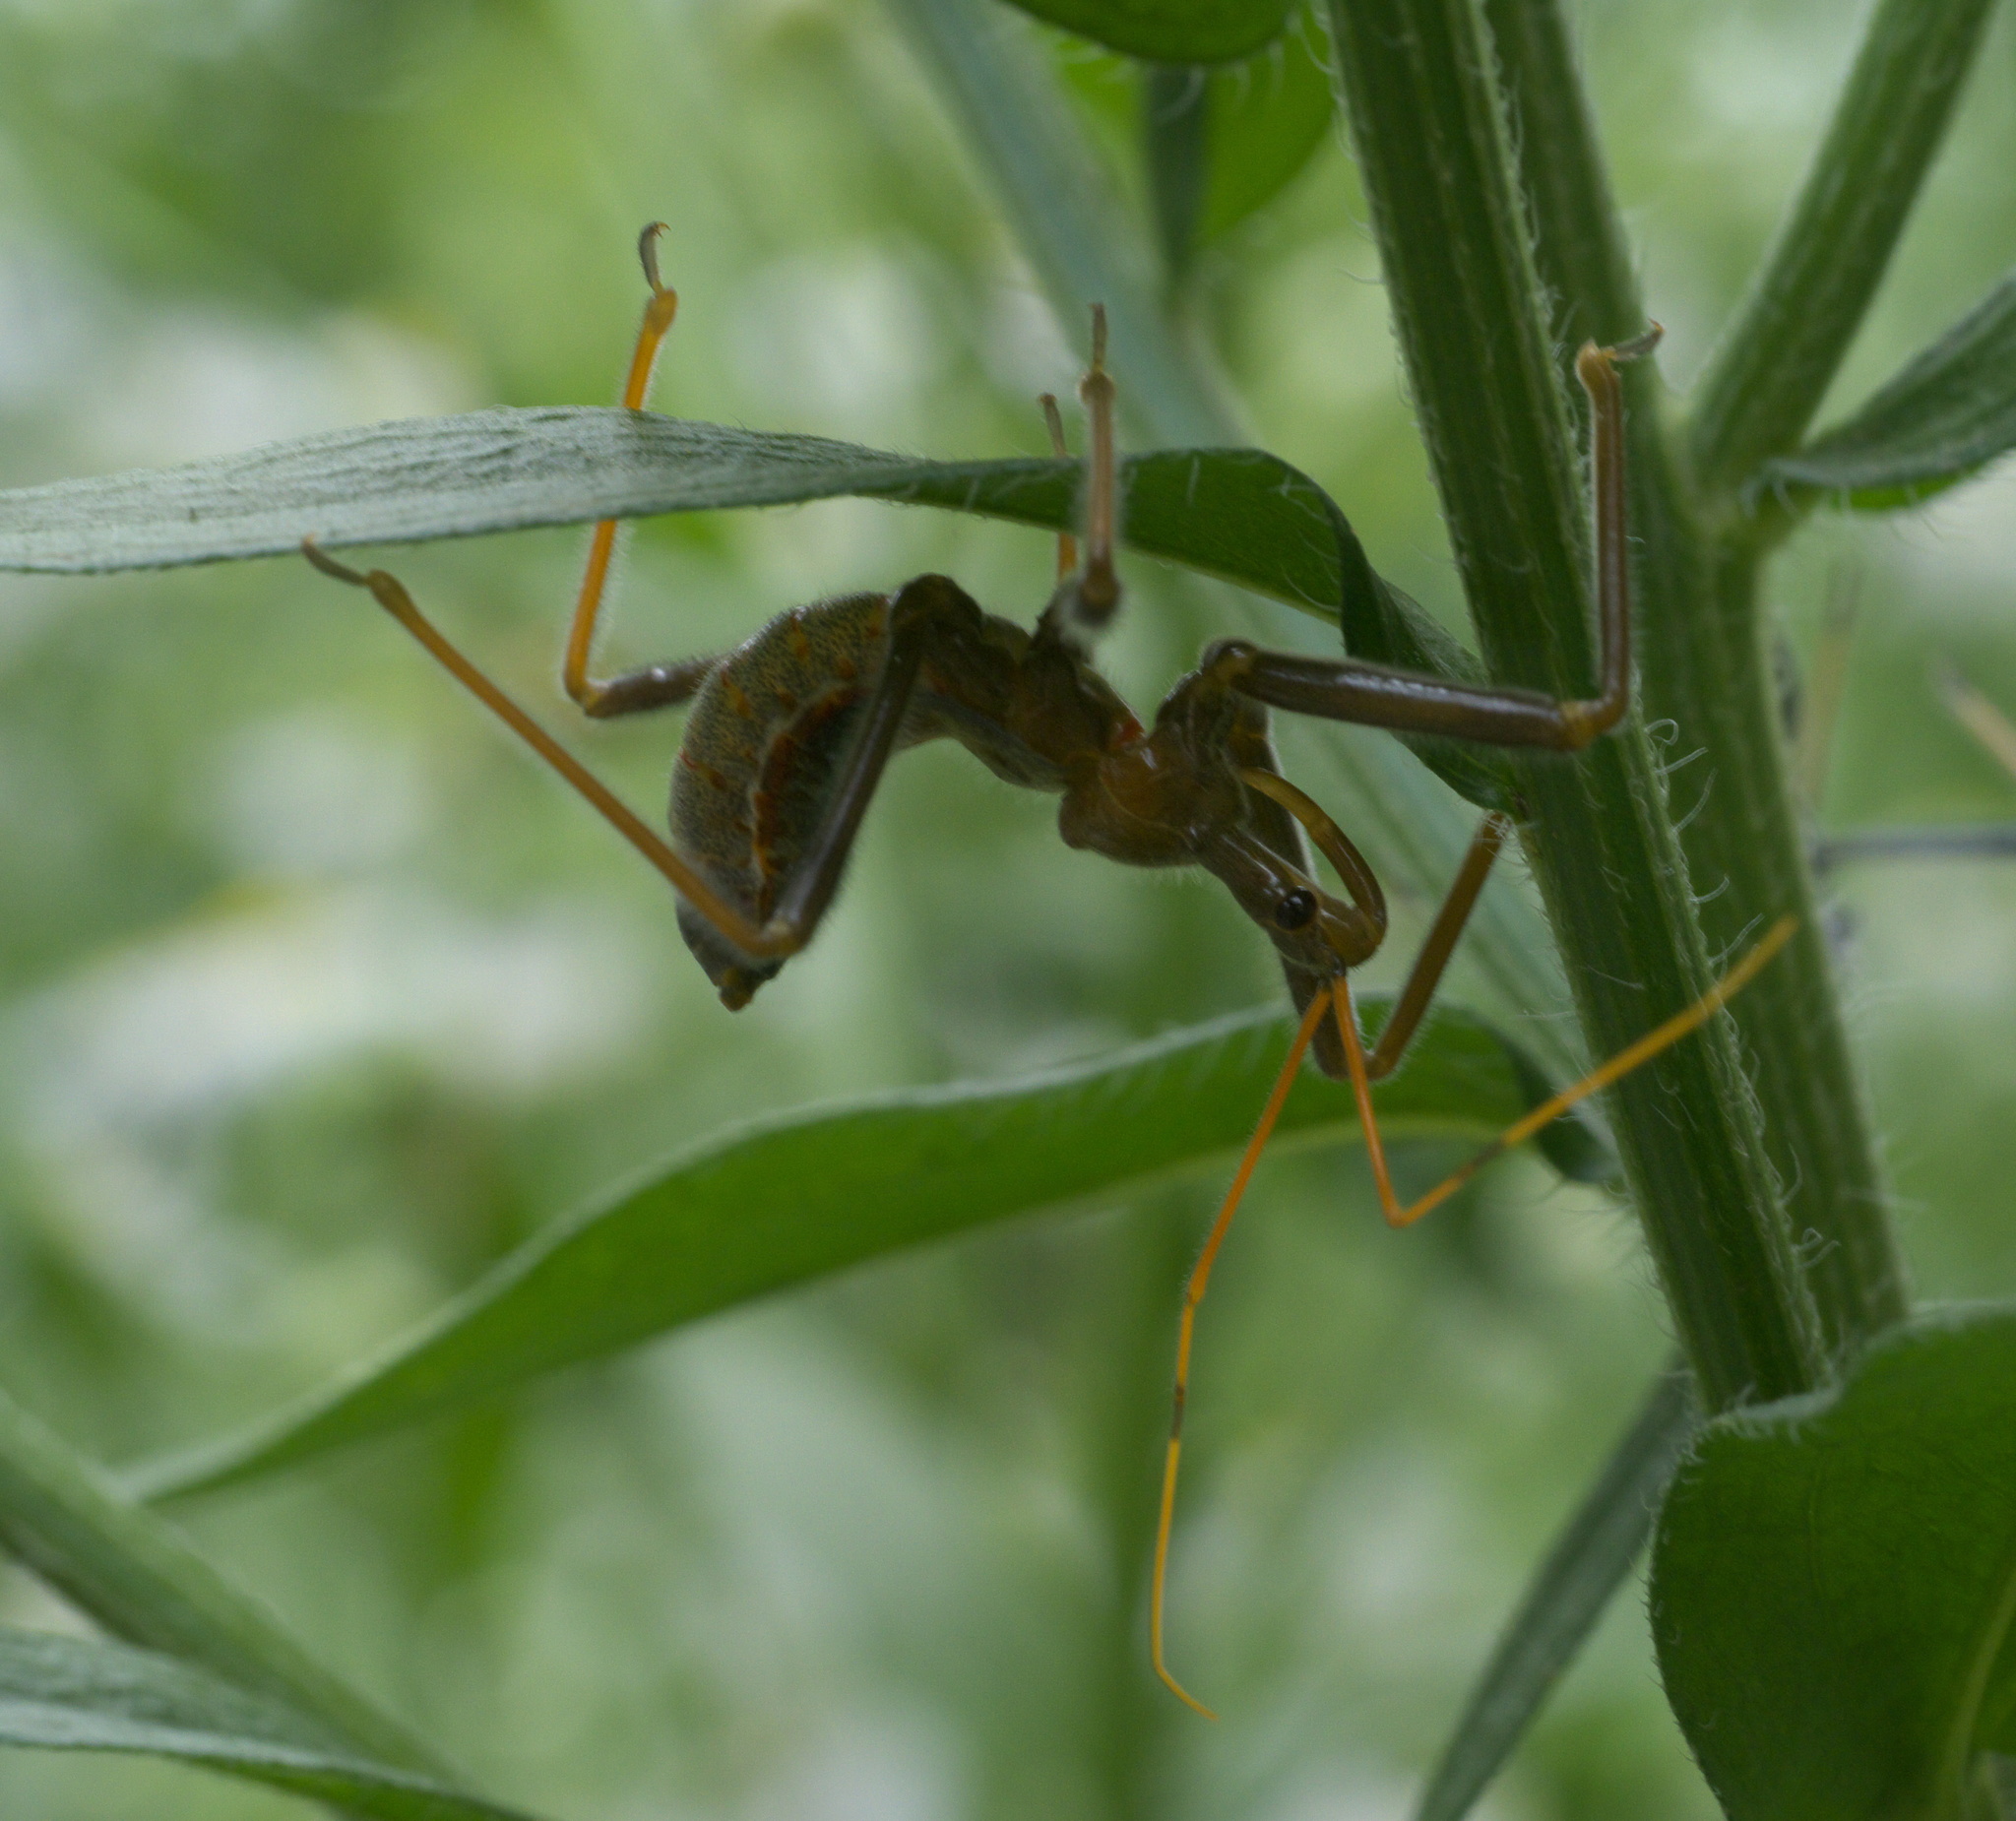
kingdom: Animalia
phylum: Arthropoda
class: Insecta
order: Hemiptera
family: Reduviidae
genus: Arilus
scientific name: Arilus cristatus
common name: North american wheel bug
